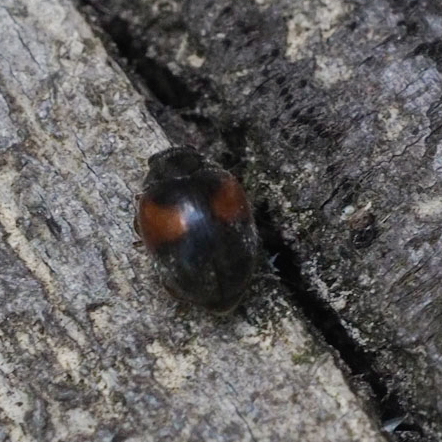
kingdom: Animalia
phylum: Arthropoda
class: Insecta
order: Coleoptera
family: Coccinellidae
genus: Scymnus
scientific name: Scymnus interruptus
